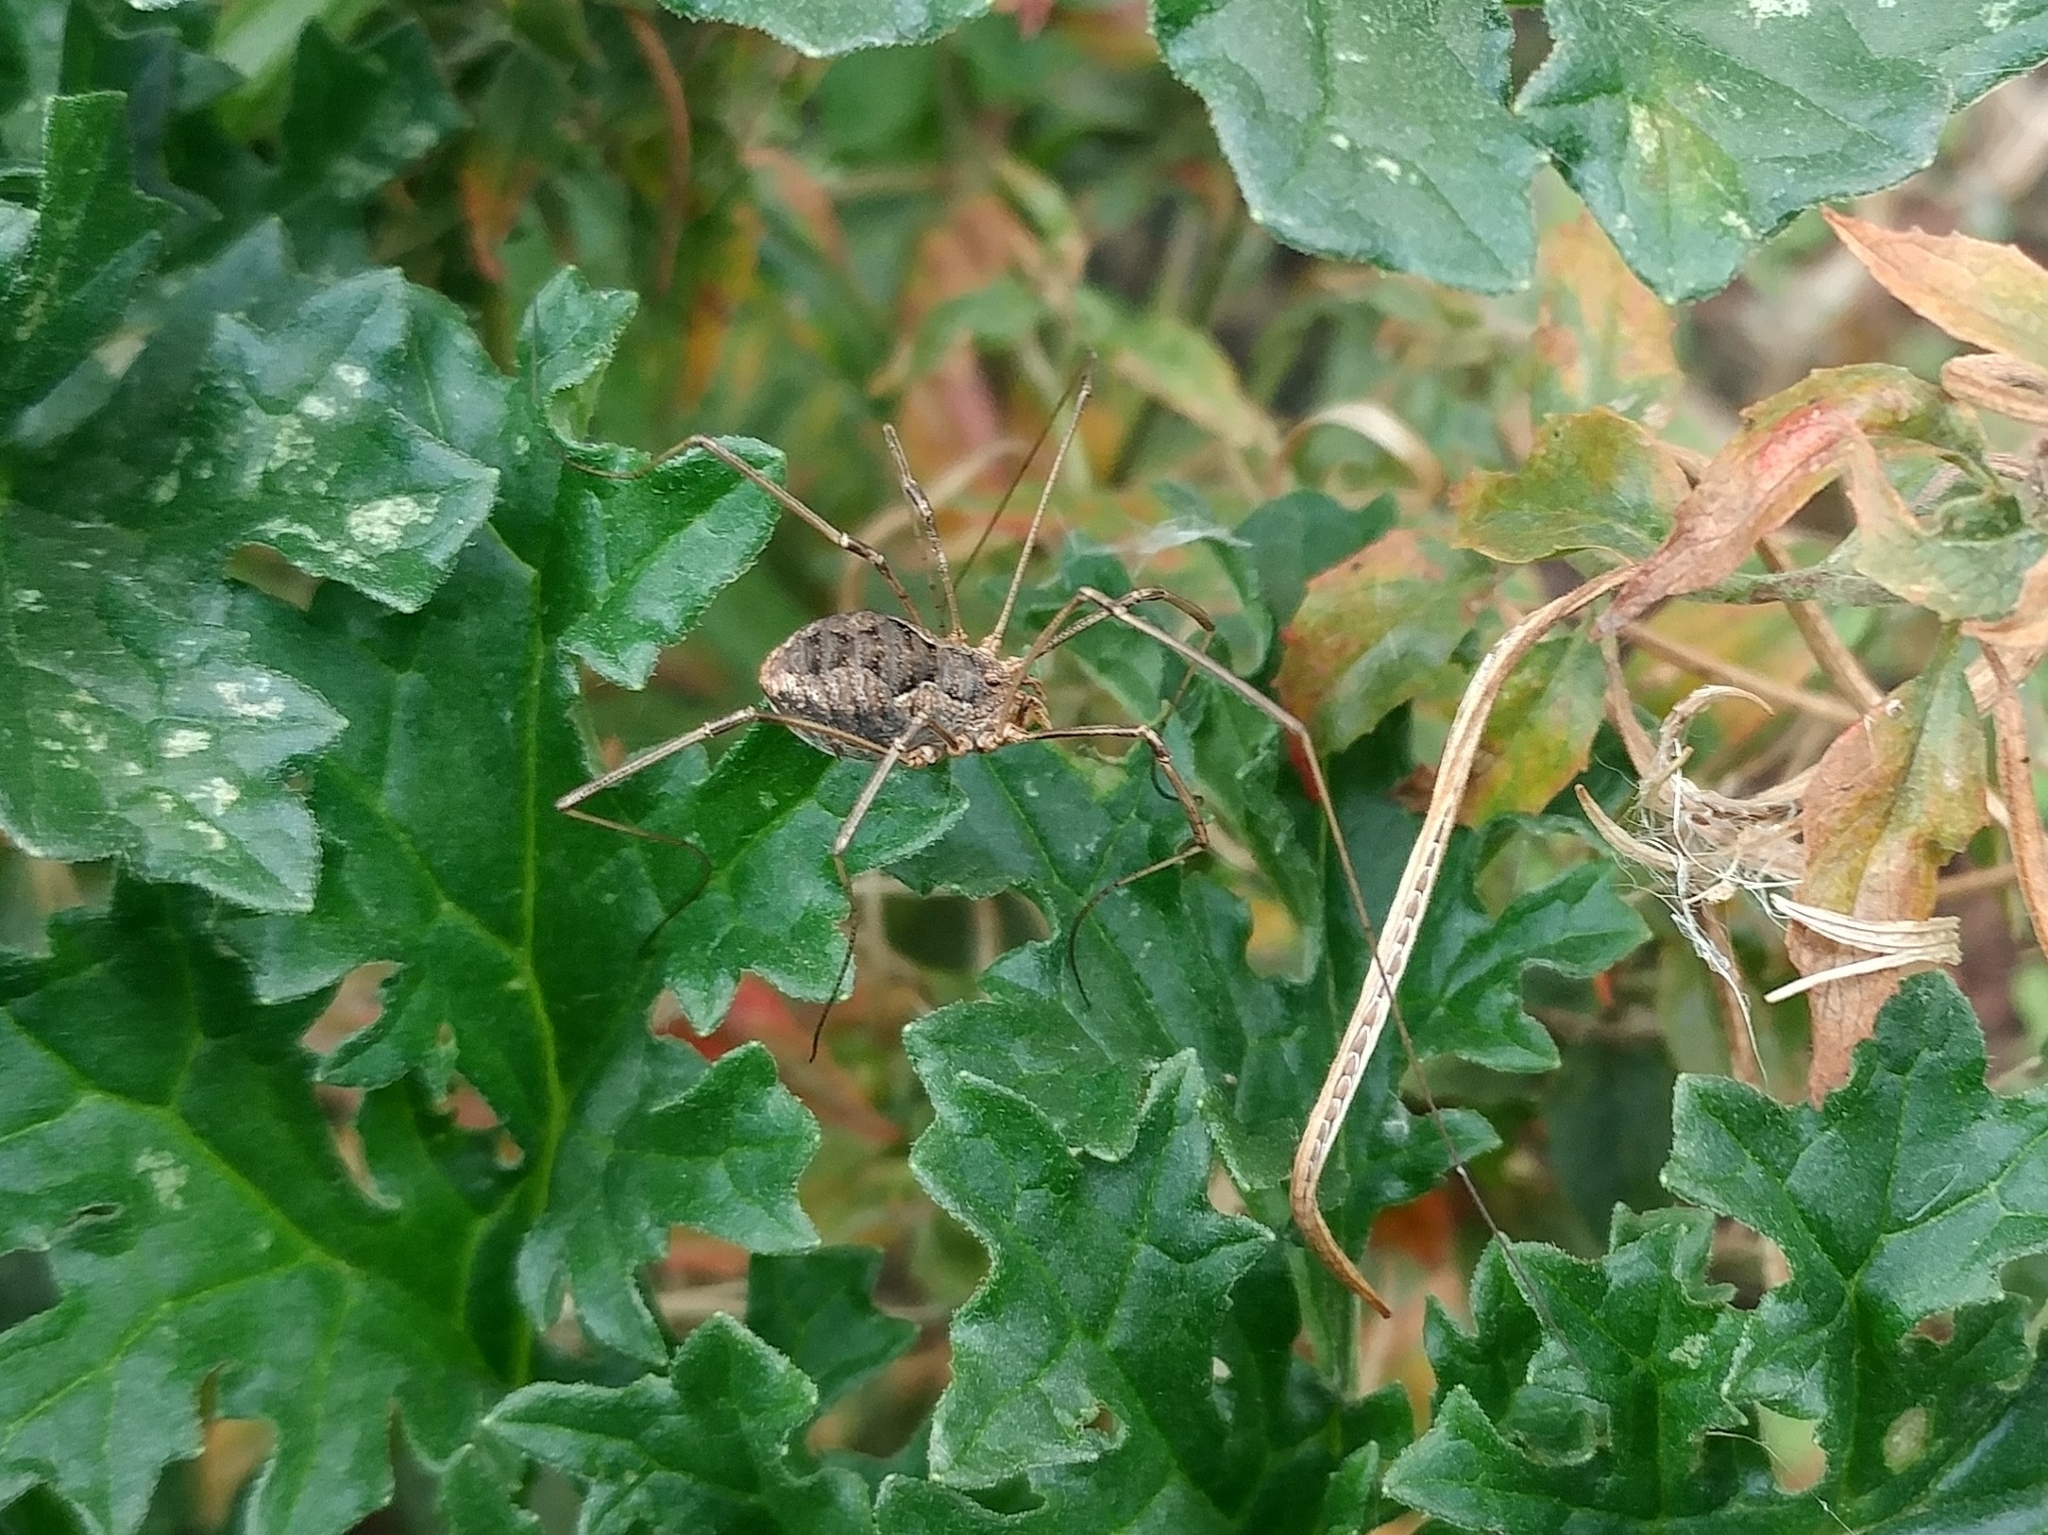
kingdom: Animalia
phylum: Arthropoda
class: Arachnida
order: Opiliones
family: Phalangiidae
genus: Phalangium
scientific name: Phalangium opilio
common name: Daddy longleg
